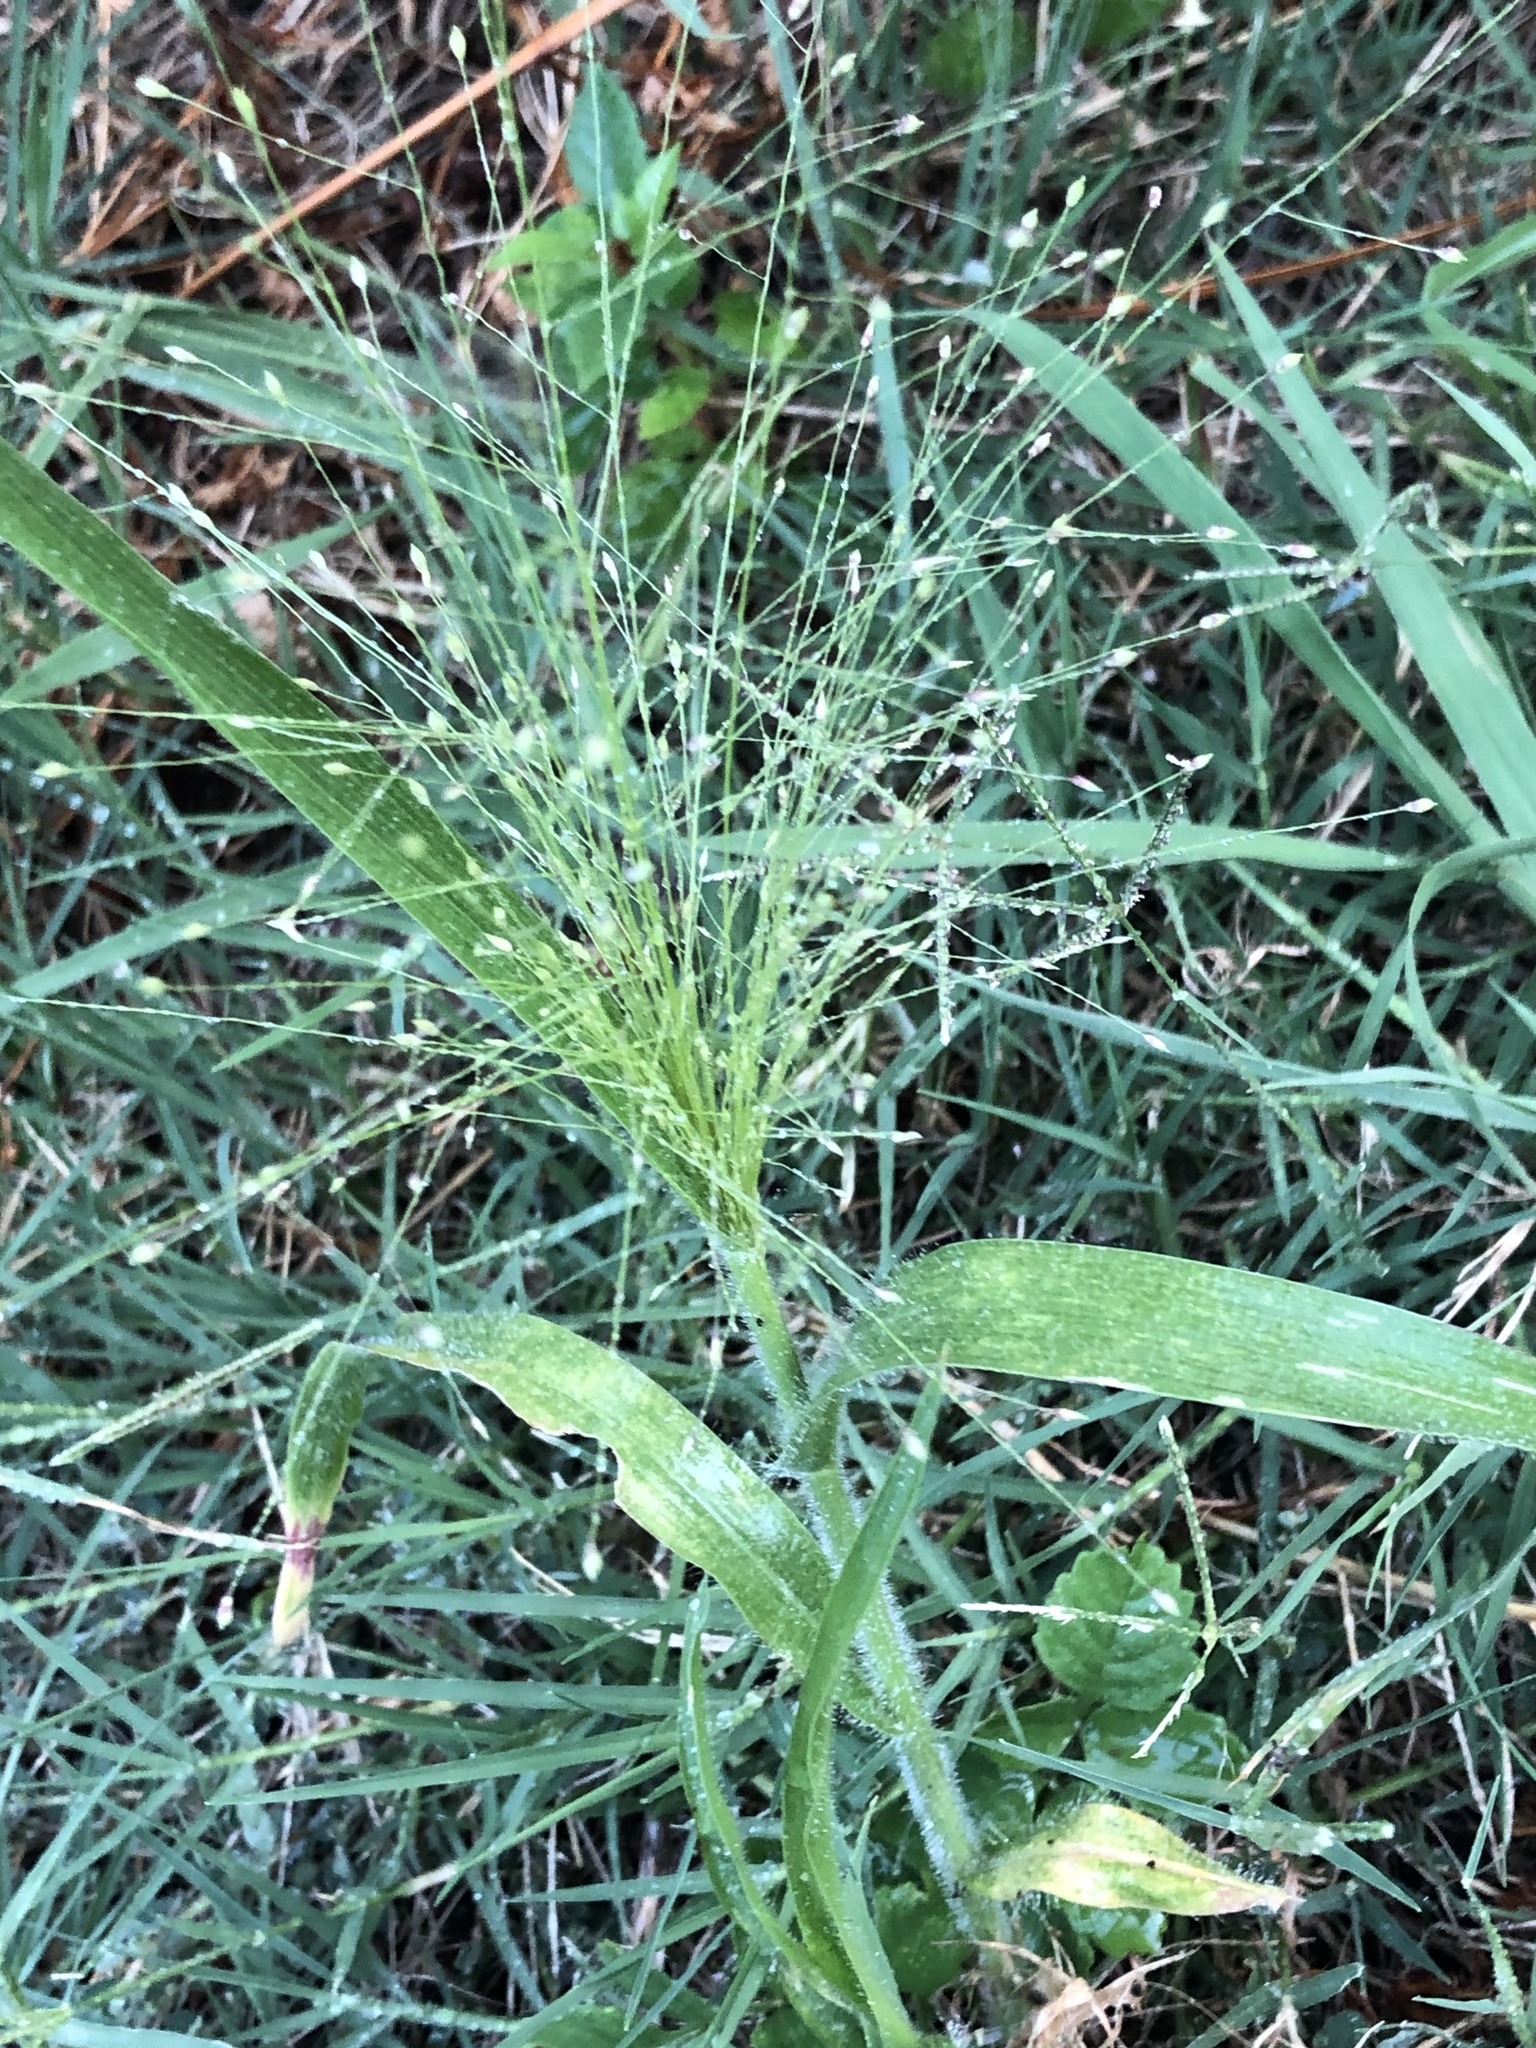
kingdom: Plantae
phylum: Tracheophyta
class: Liliopsida
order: Poales
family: Poaceae
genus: Panicum
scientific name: Panicum capillare
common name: Witch-grass
